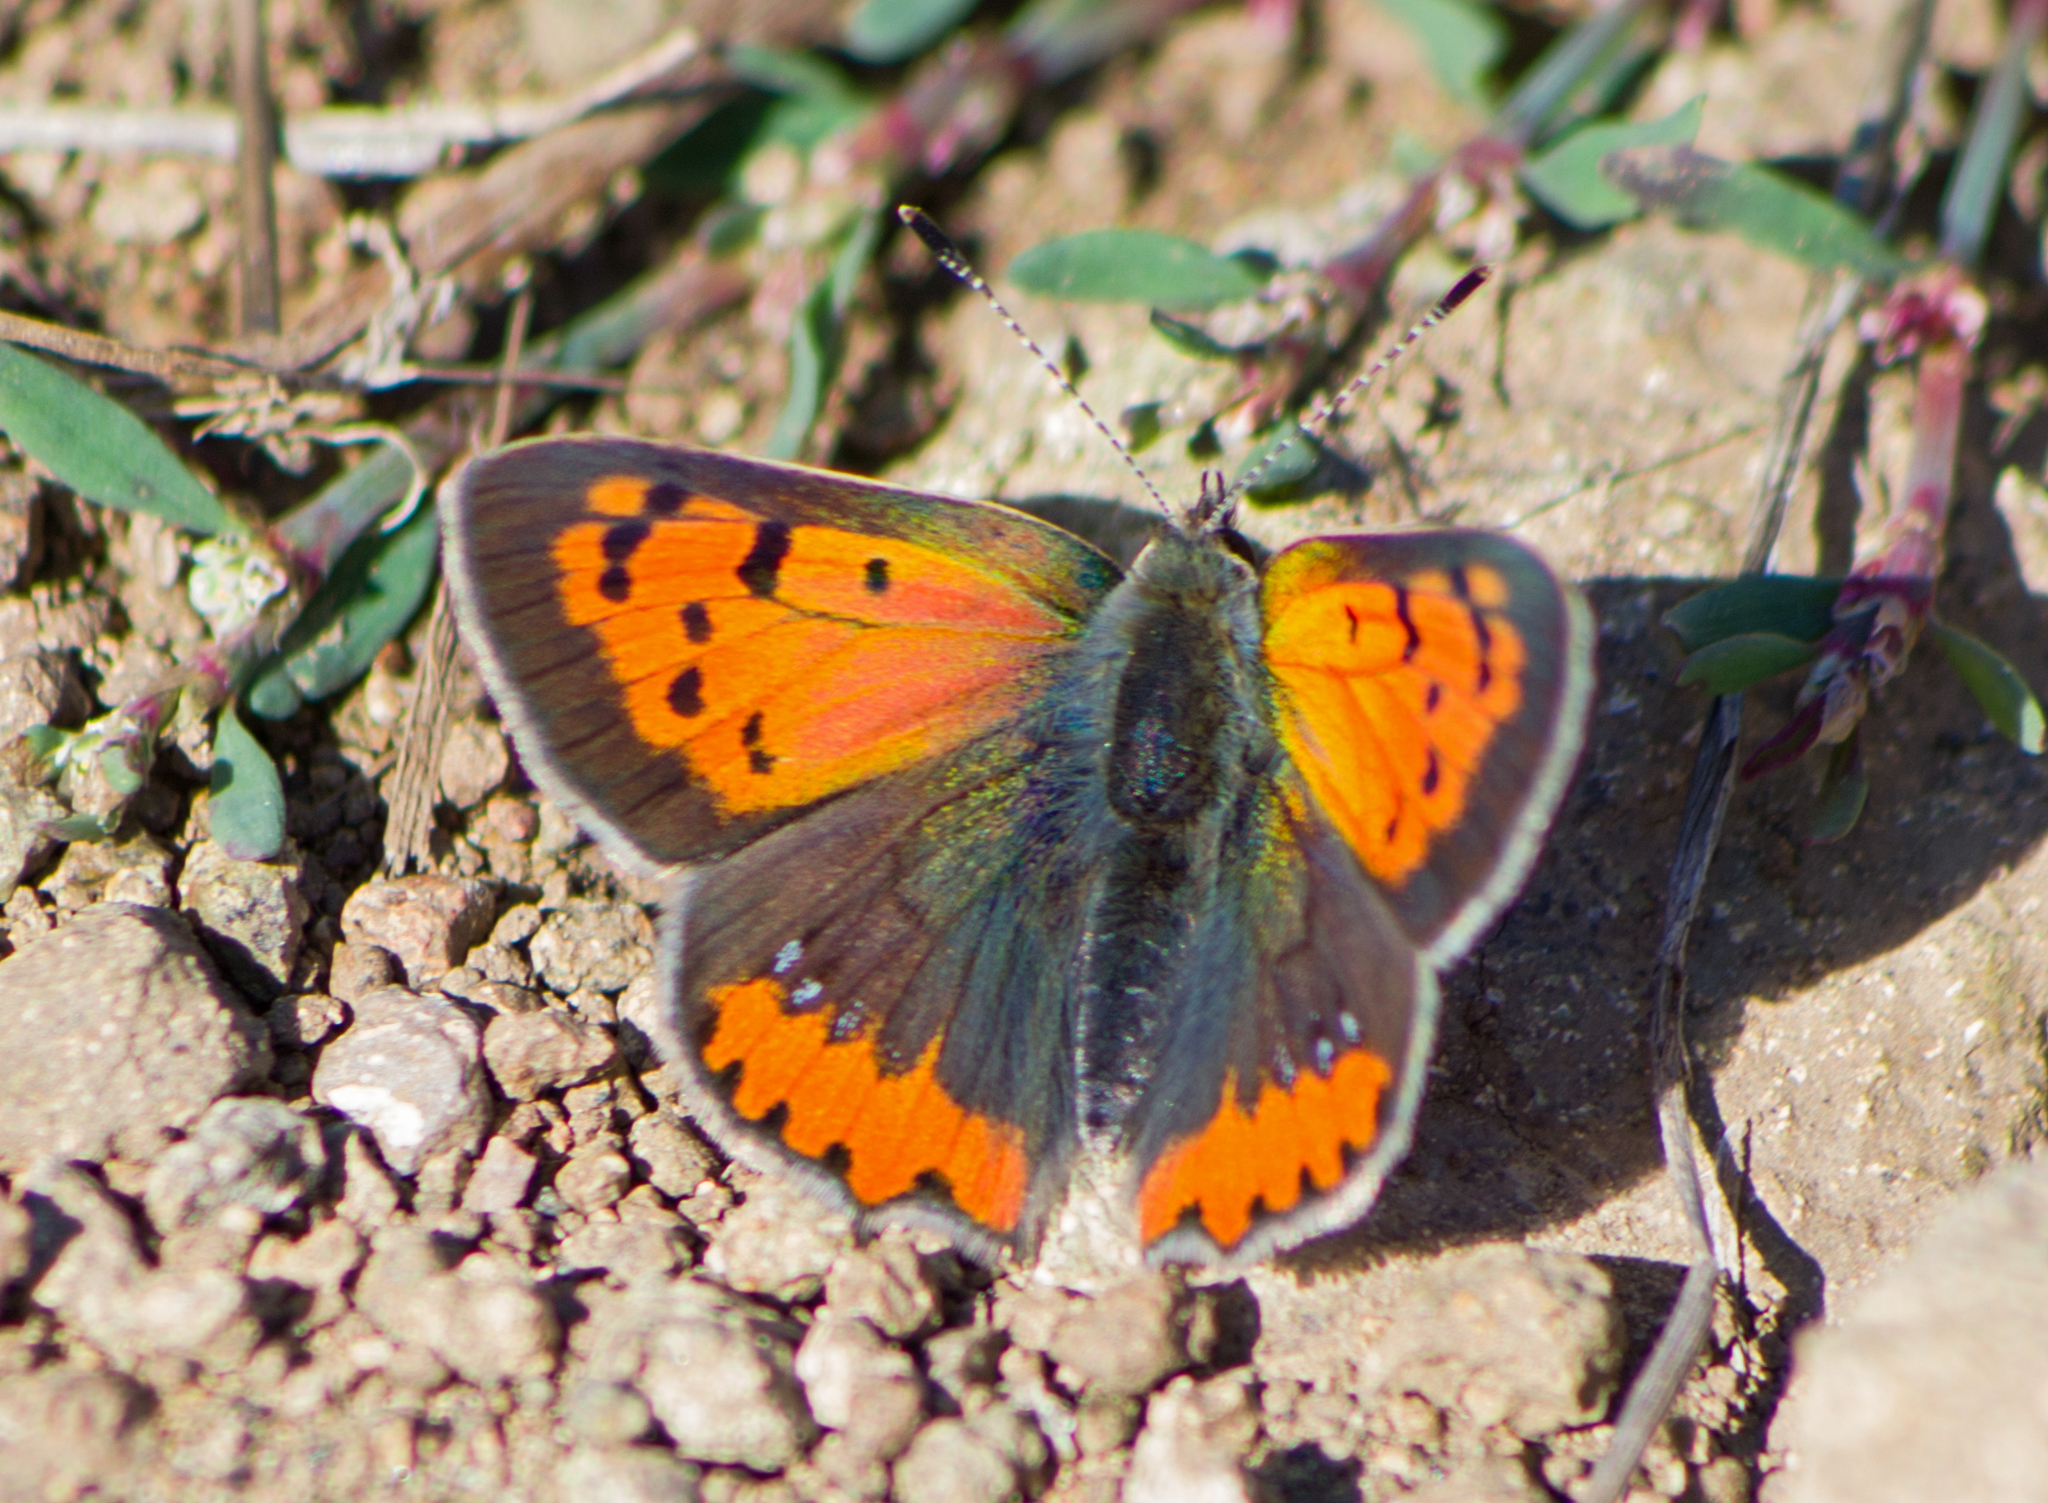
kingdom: Animalia
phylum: Arthropoda
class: Insecta
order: Lepidoptera
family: Lycaenidae
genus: Lycaena
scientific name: Lycaena phlaeas
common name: Small copper
